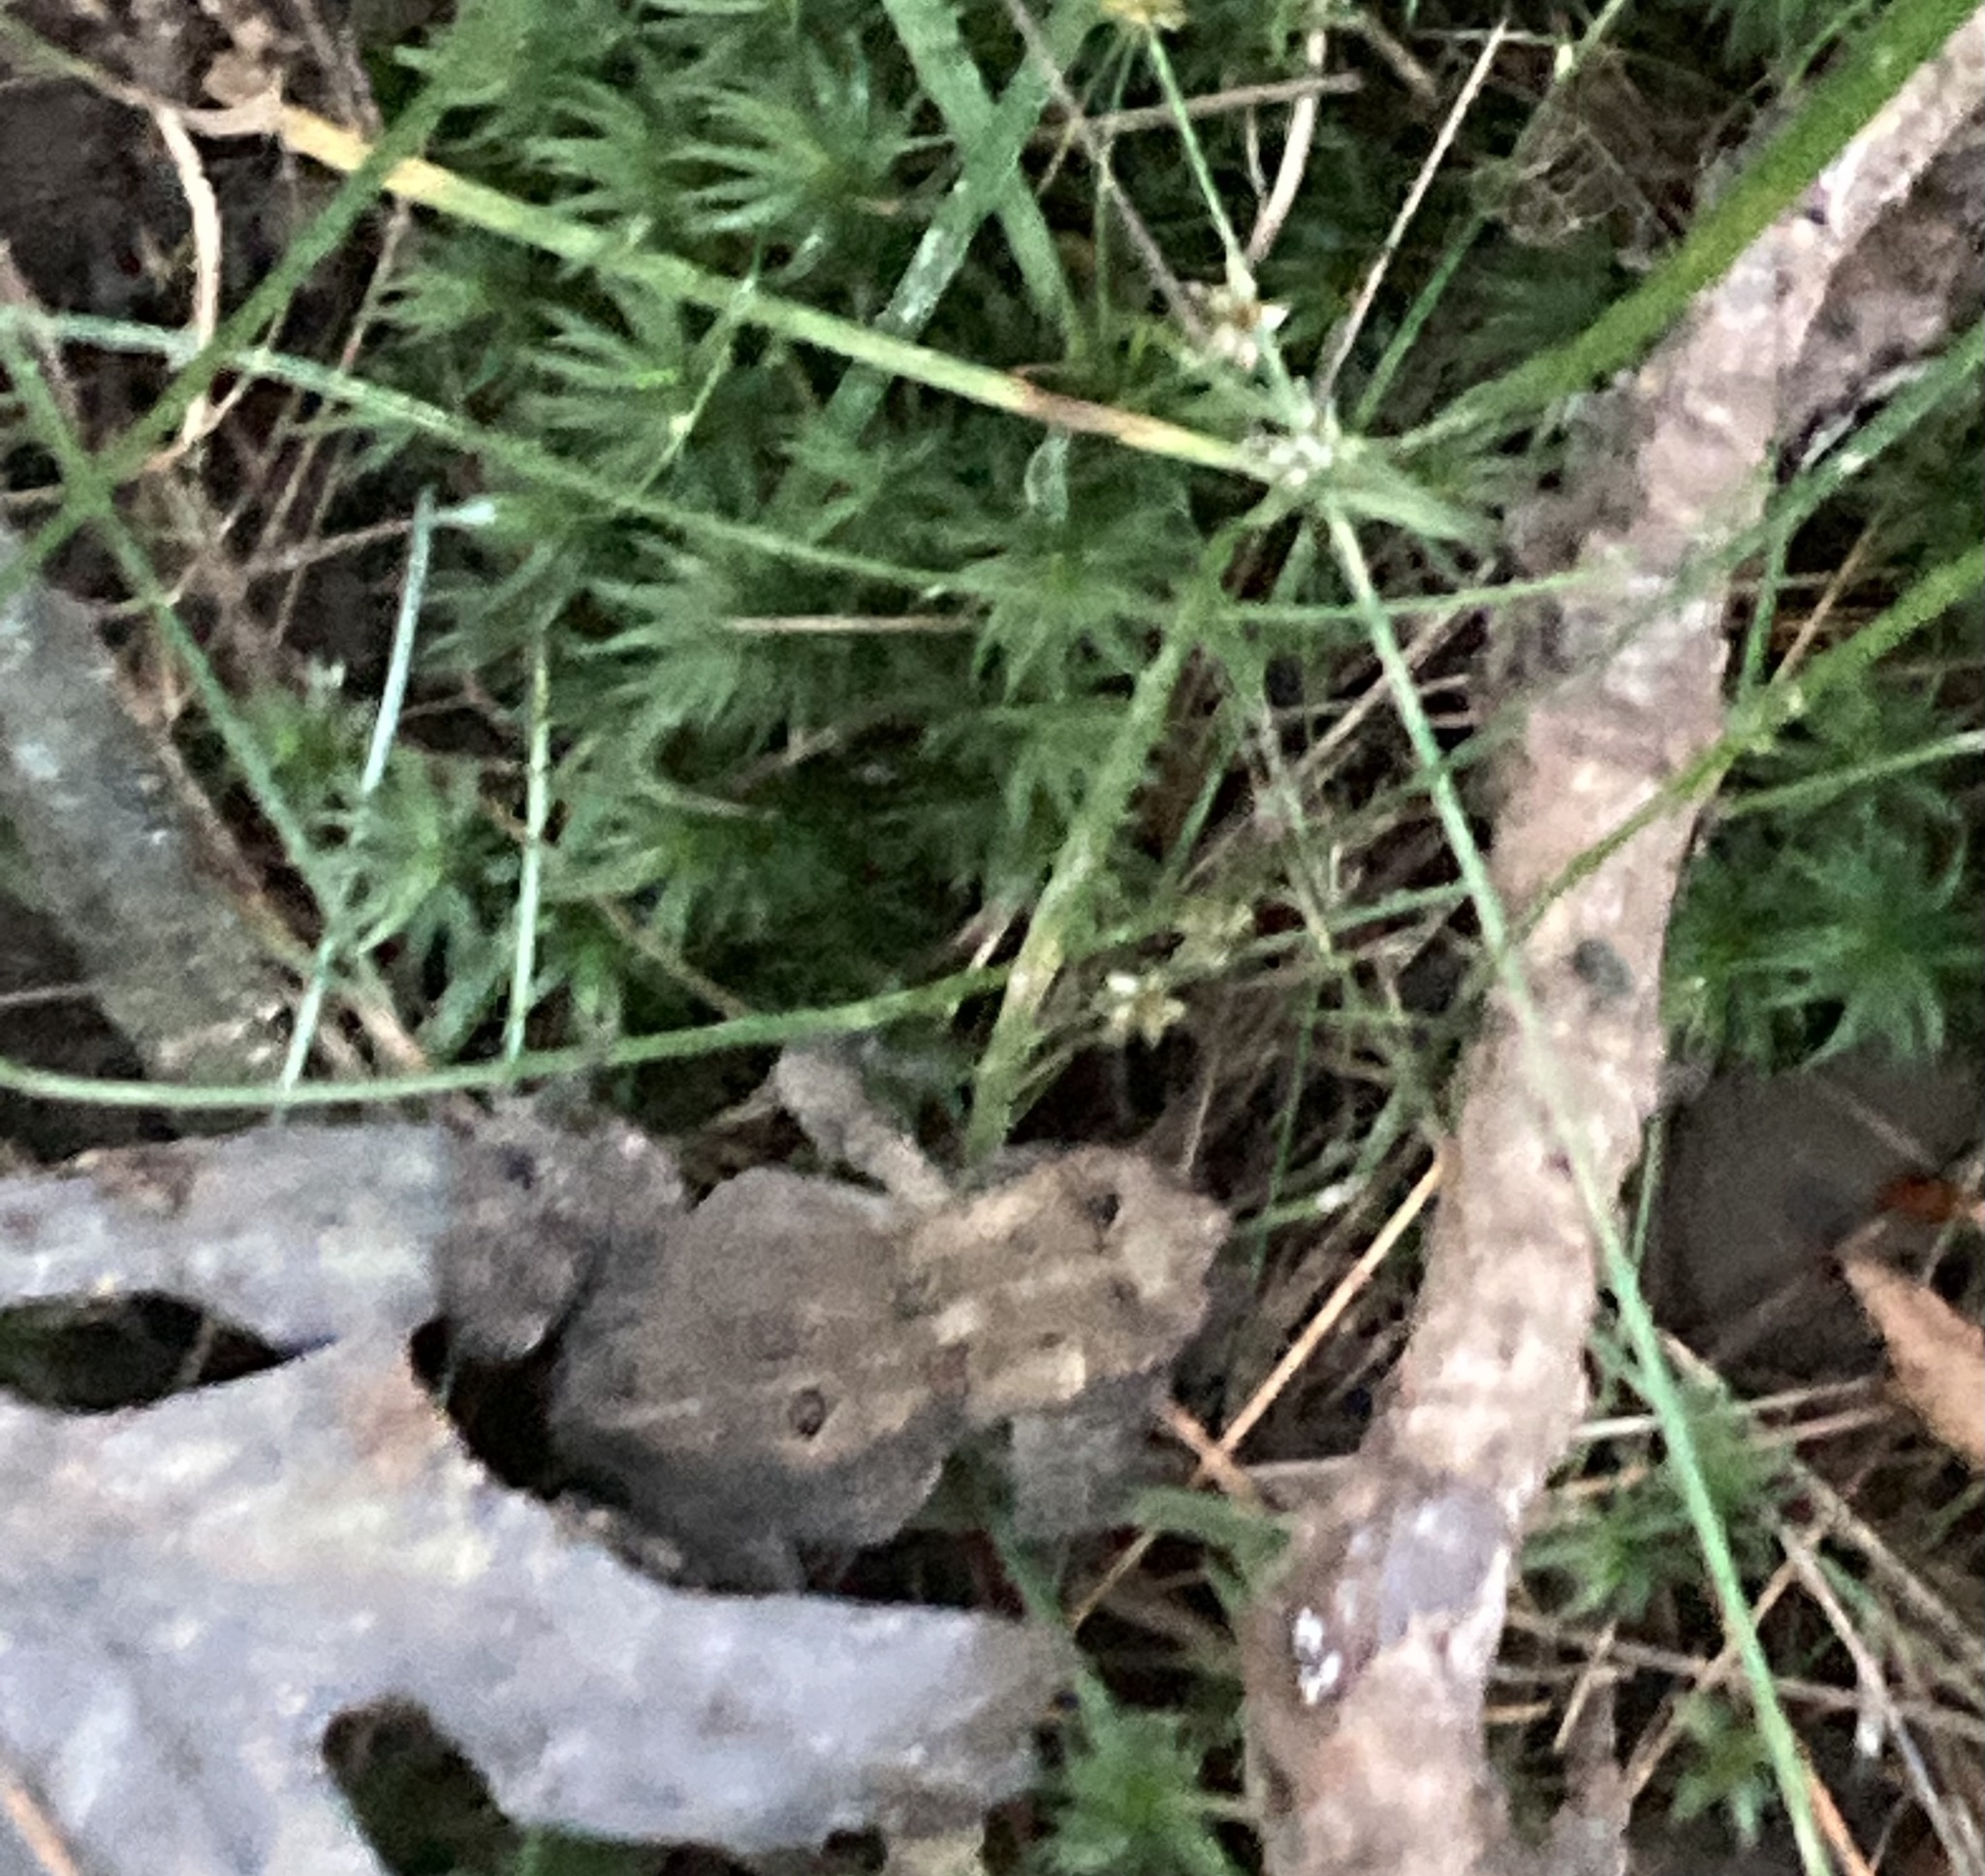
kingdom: Animalia
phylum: Chordata
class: Amphibia
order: Anura
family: Bufonidae
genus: Anaxyrus
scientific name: Anaxyrus americanus
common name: American toad
